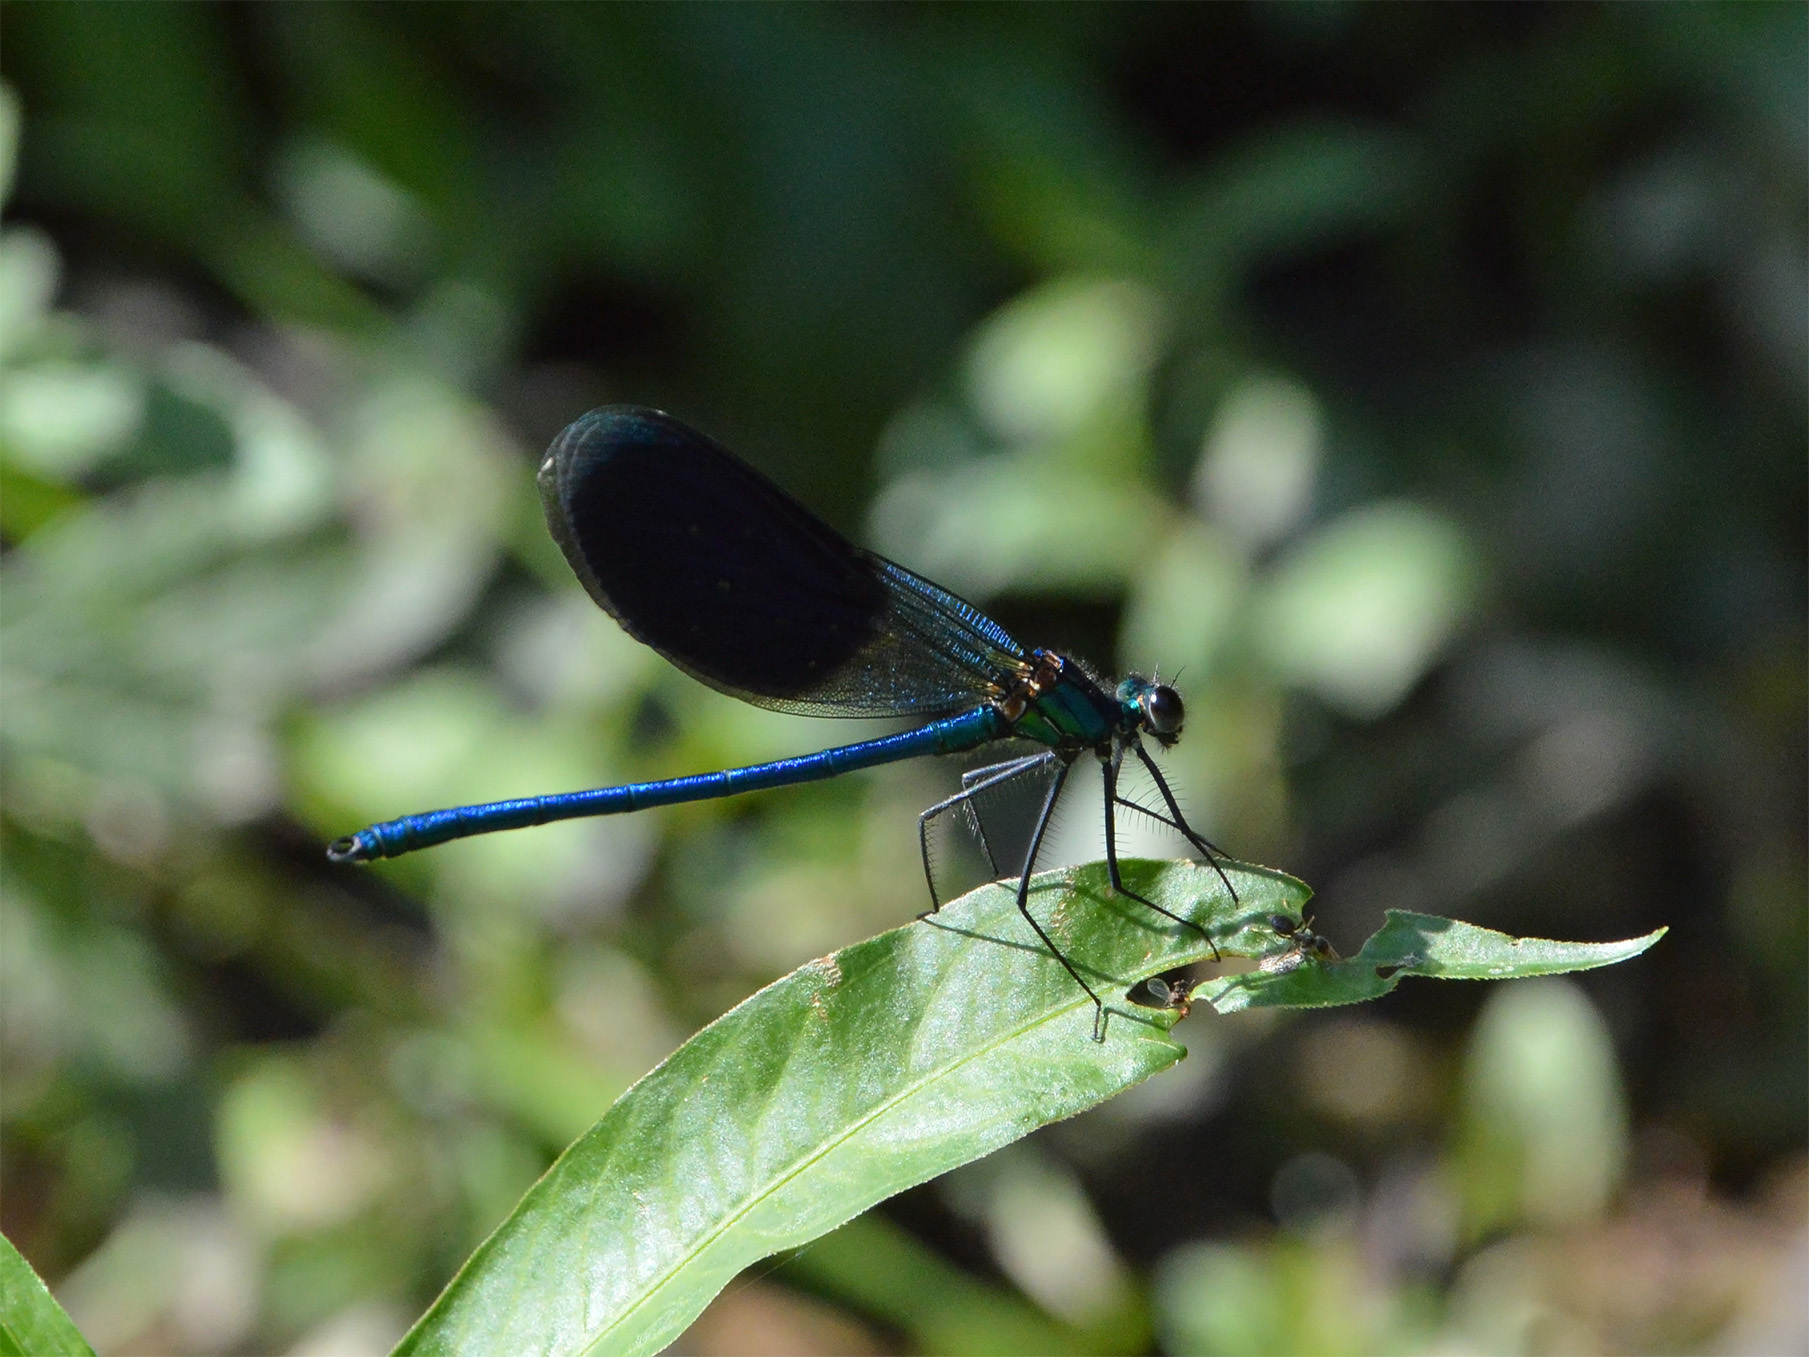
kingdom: Animalia
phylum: Arthropoda
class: Insecta
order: Odonata
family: Calopterygidae
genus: Calopteryx
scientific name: Calopteryx splendens
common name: Banded demoiselle
